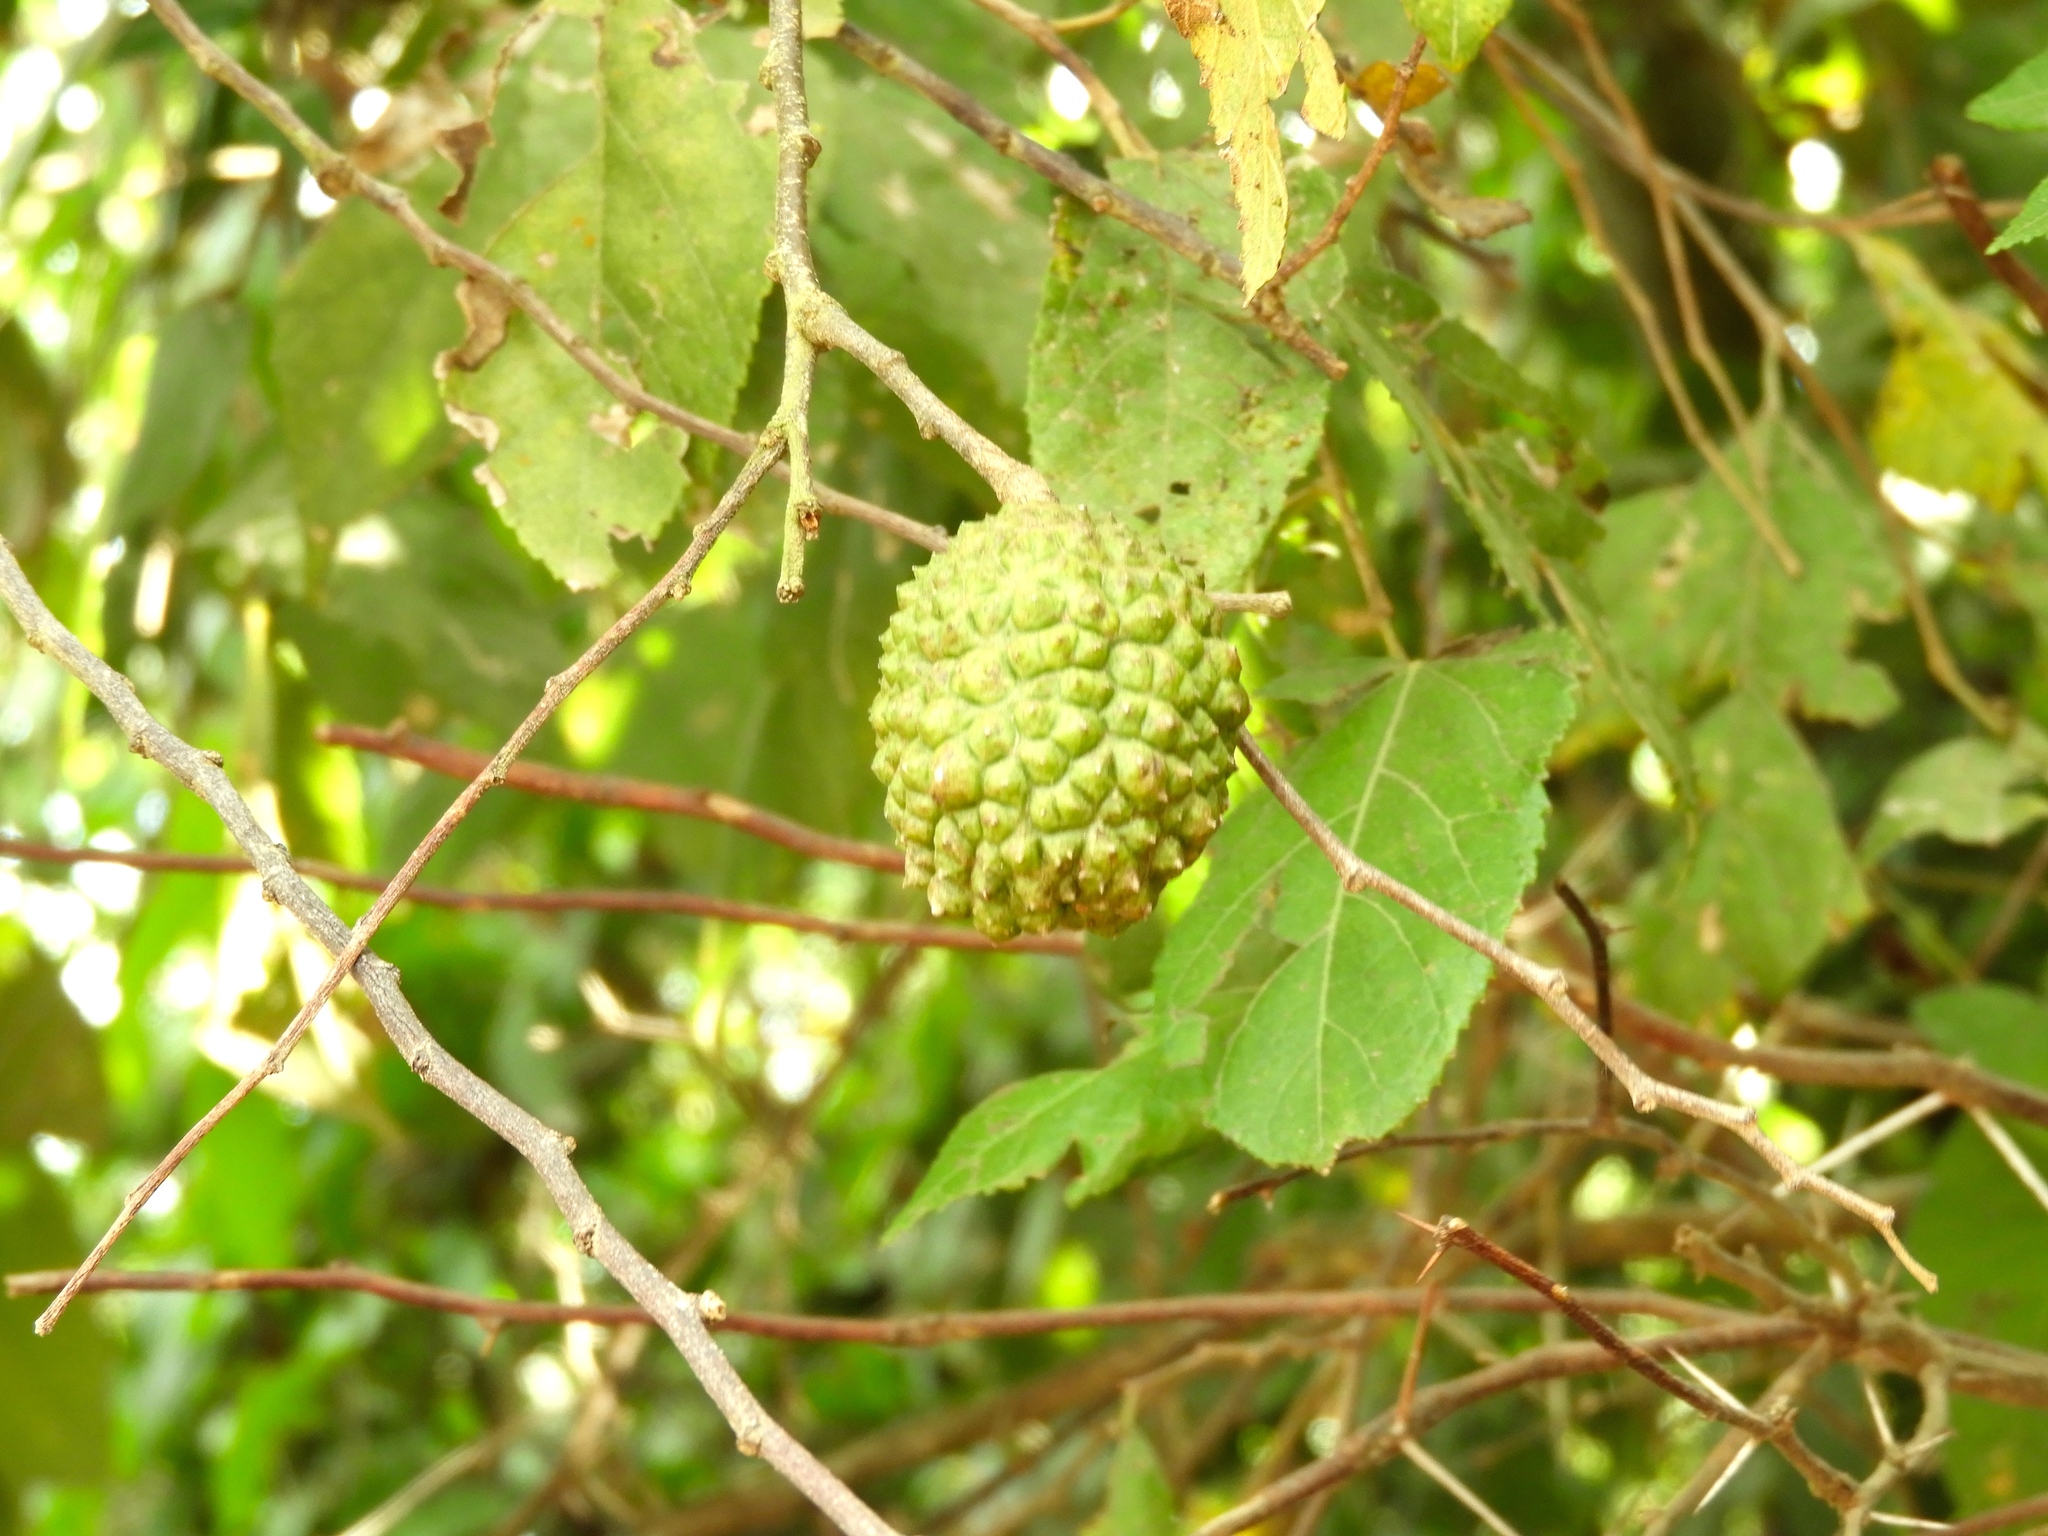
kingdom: Plantae
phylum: Tracheophyta
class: Magnoliopsida
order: Malvales
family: Malvaceae
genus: Guazuma
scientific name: Guazuma ulmifolia
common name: Bastard-cedar
